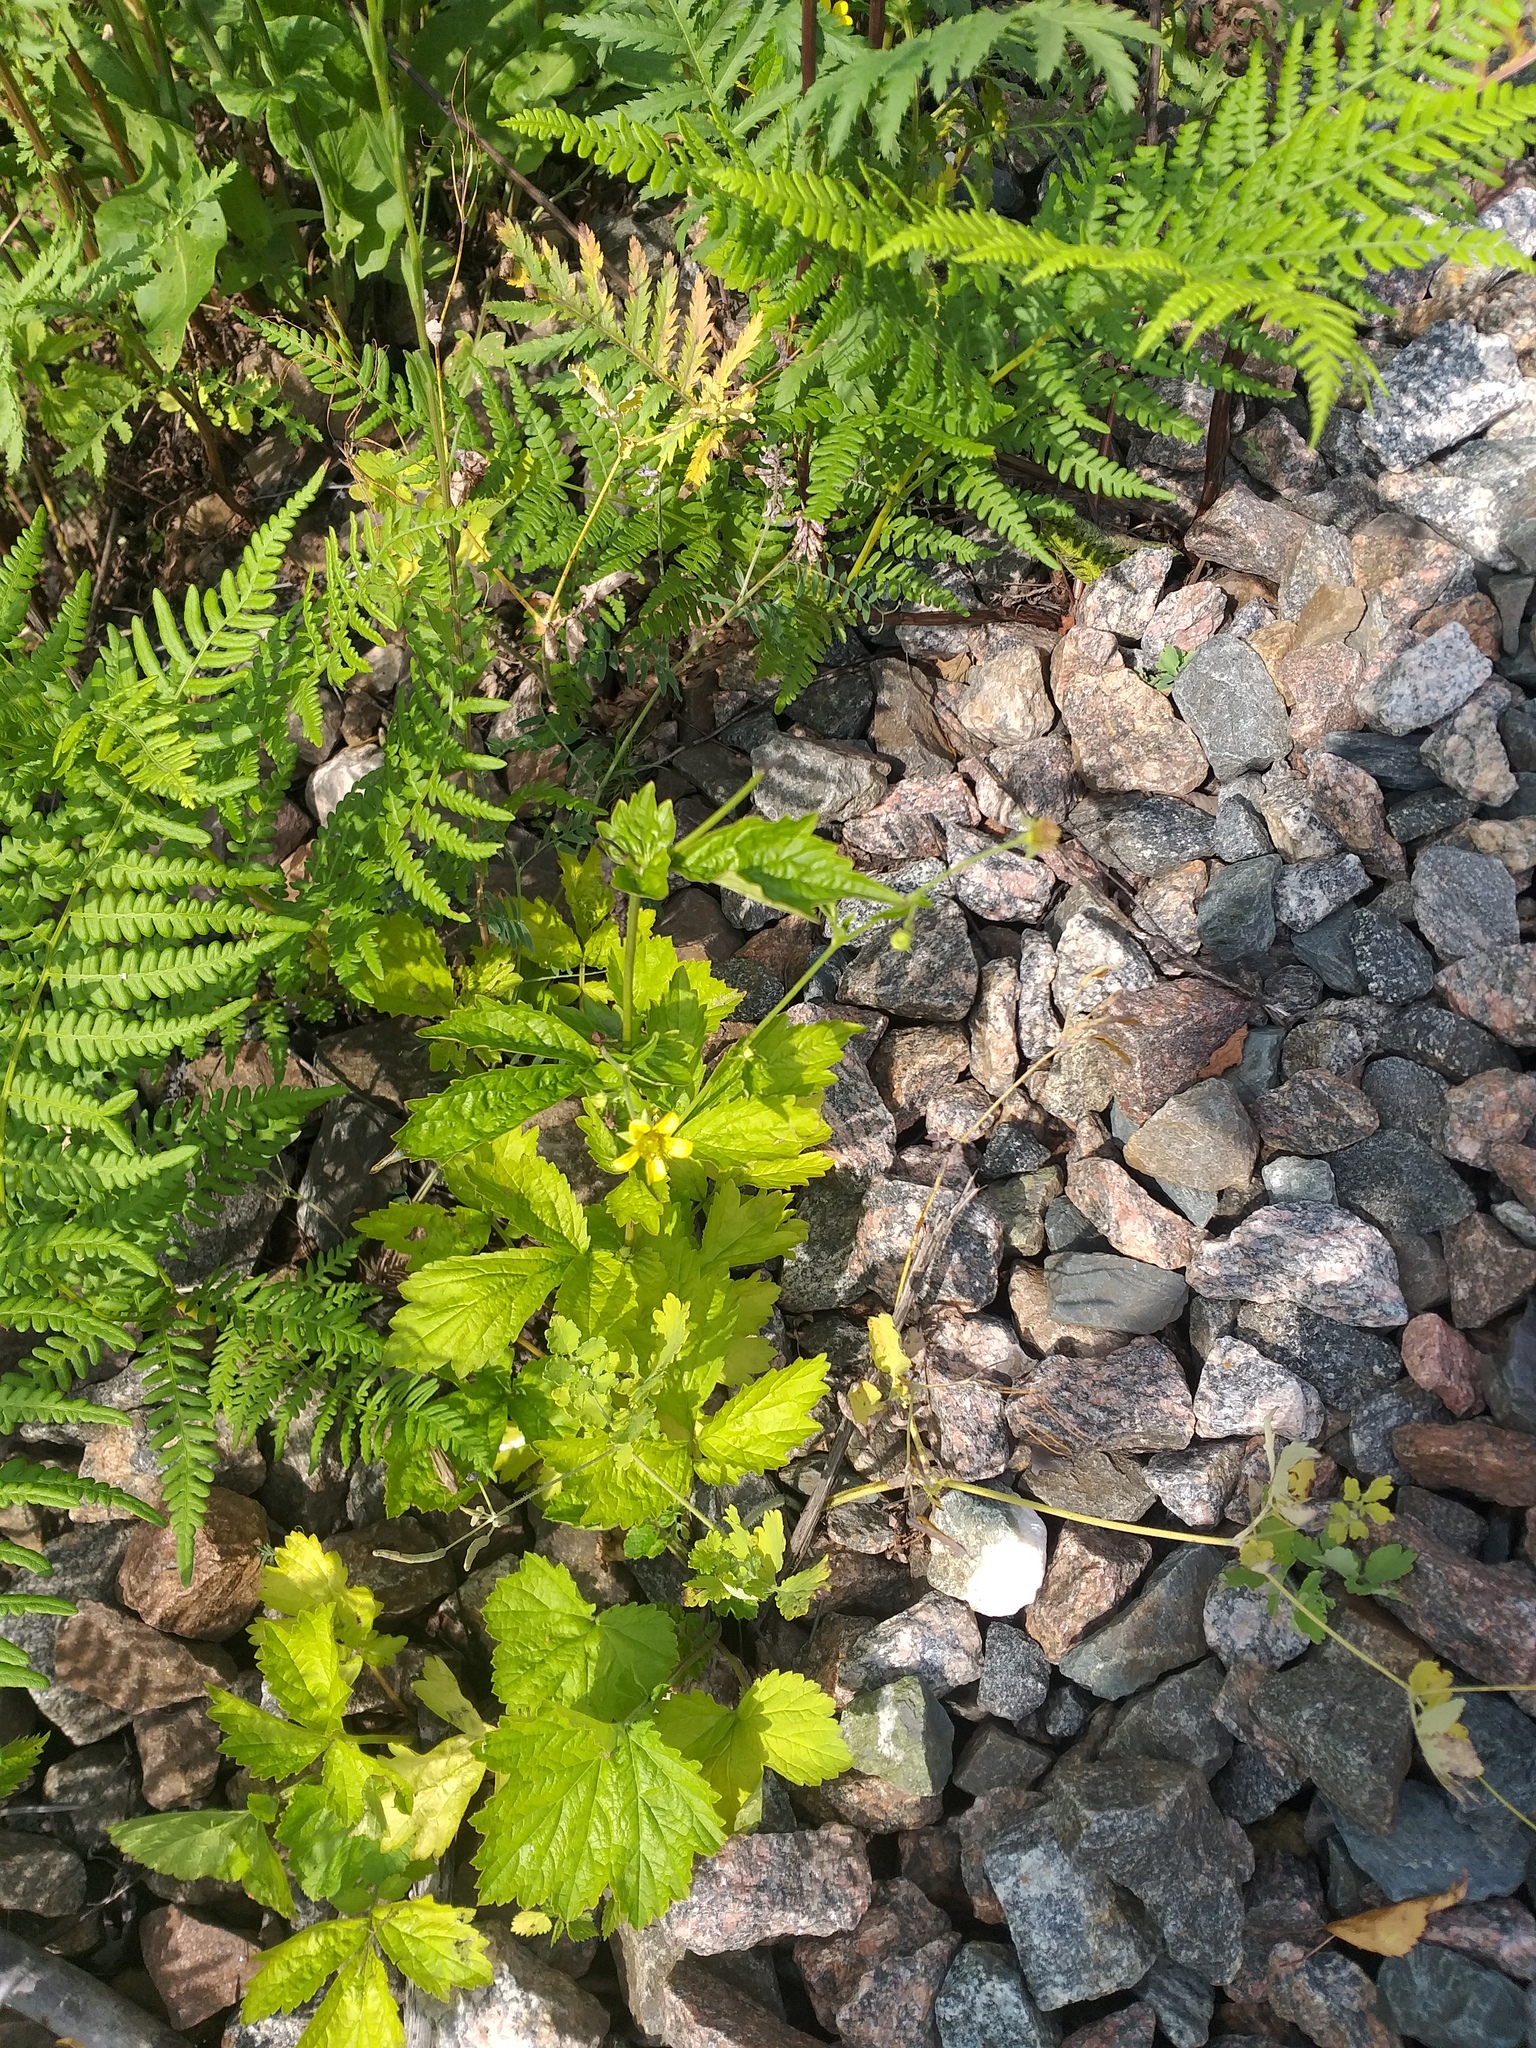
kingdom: Plantae
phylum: Tracheophyta
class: Magnoliopsida
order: Rosales
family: Rosaceae
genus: Geum
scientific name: Geum urbanum
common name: Wood avens
